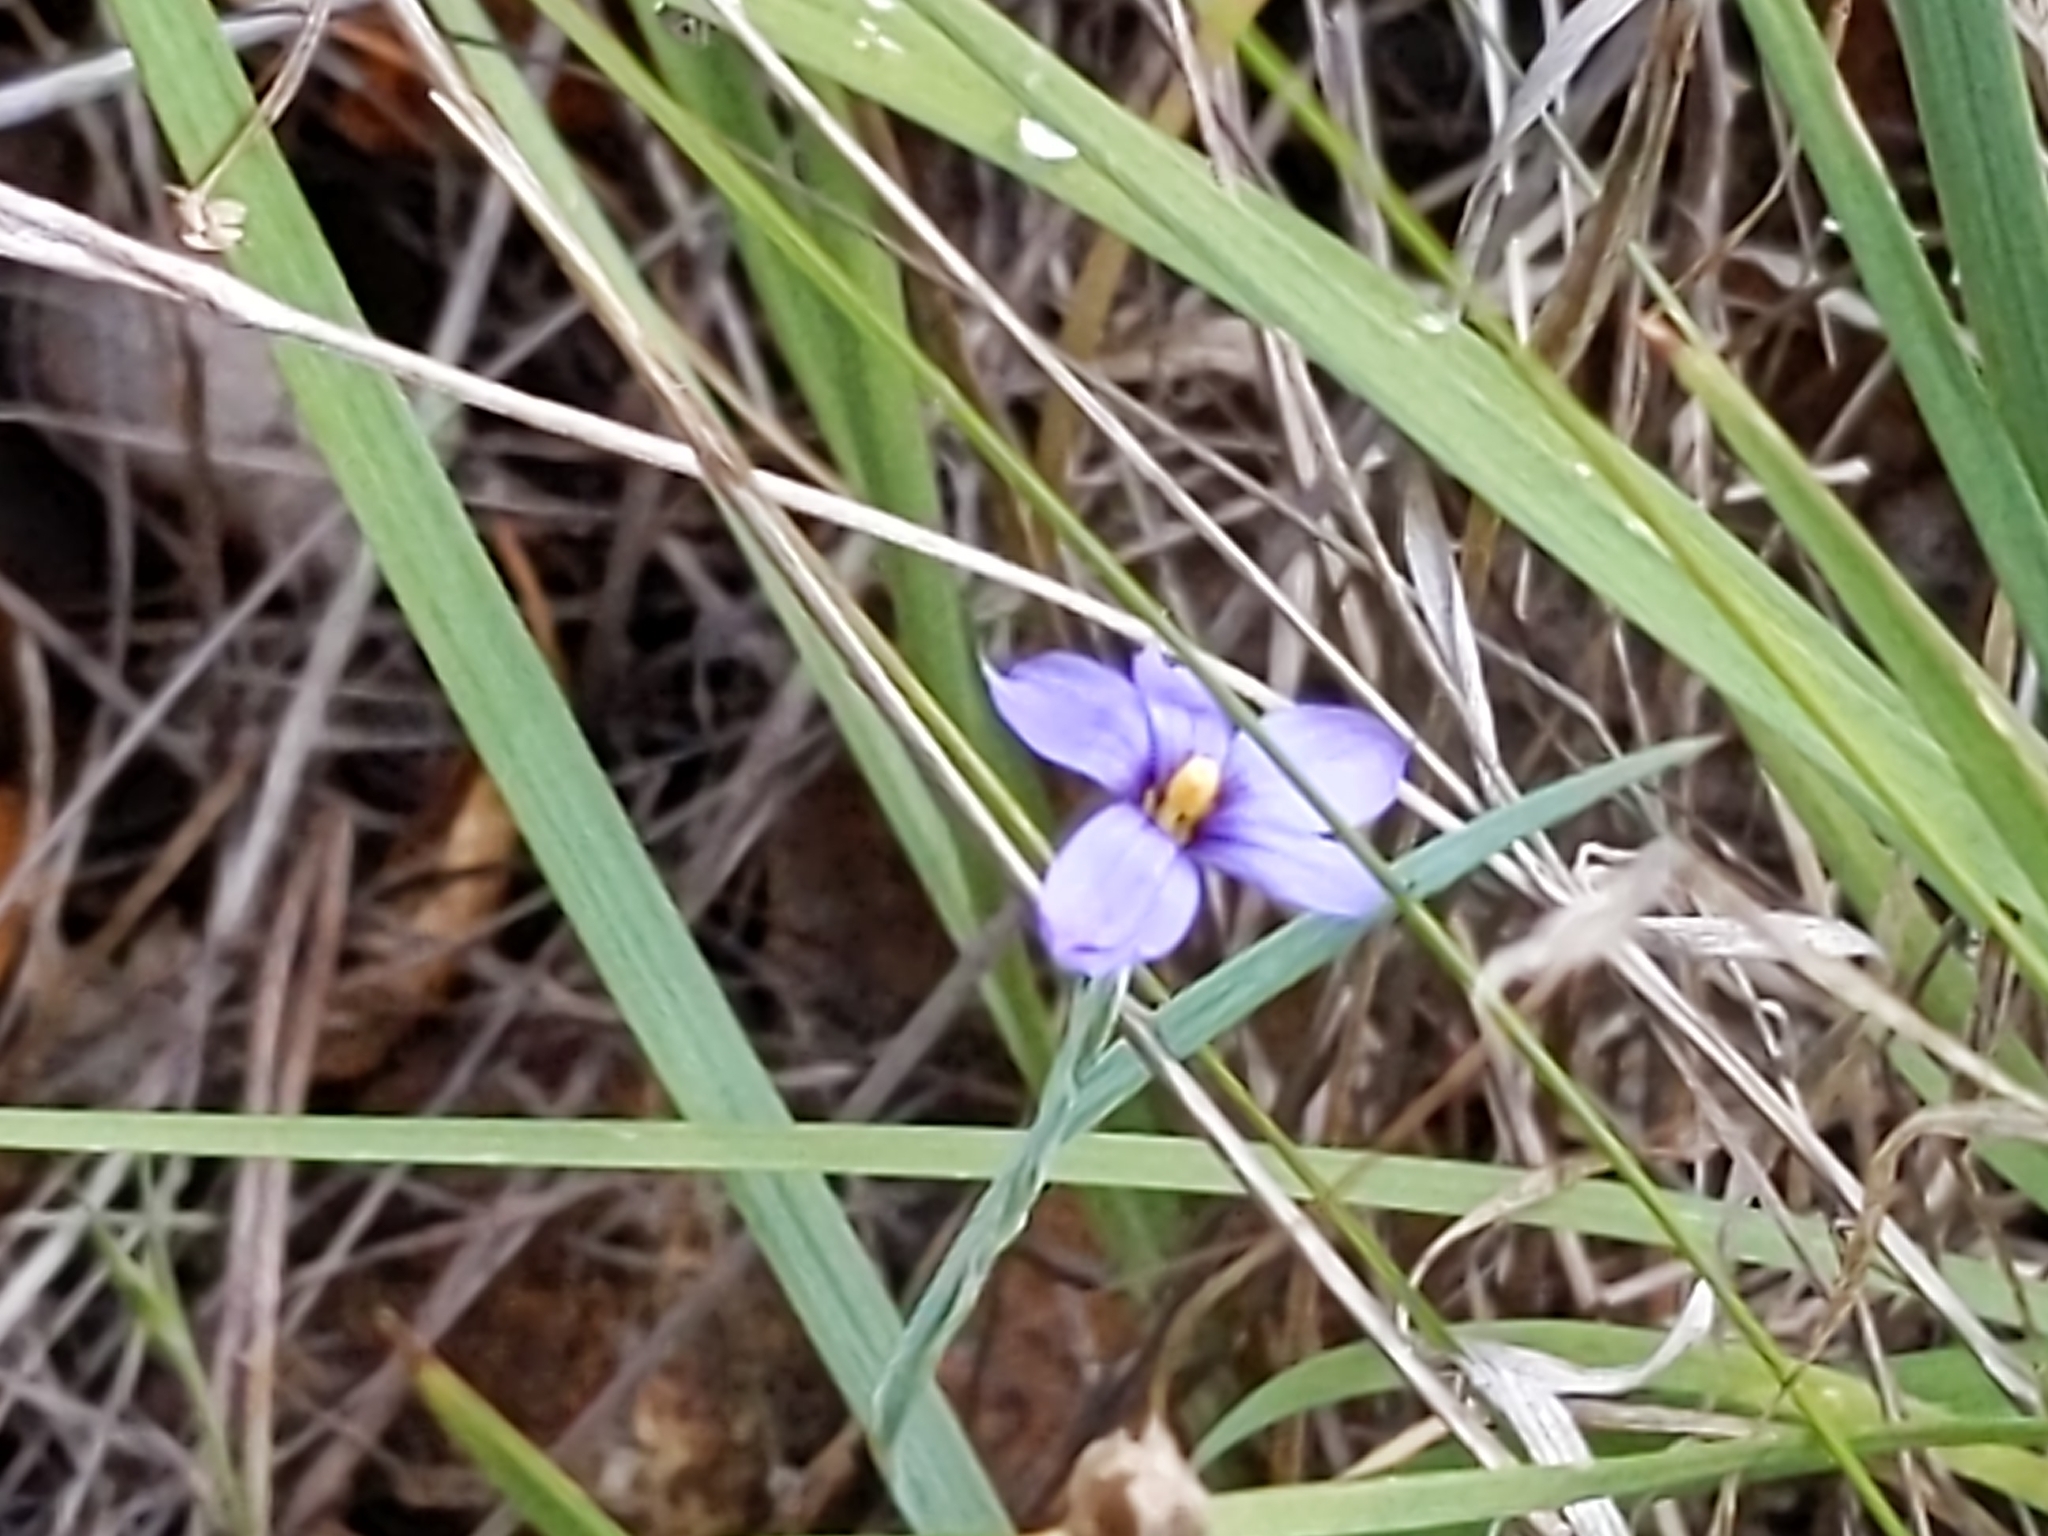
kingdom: Plantae
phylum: Tracheophyta
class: Liliopsida
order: Asparagales
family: Iridaceae
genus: Sisyrinchium
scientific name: Sisyrinchium bellum
